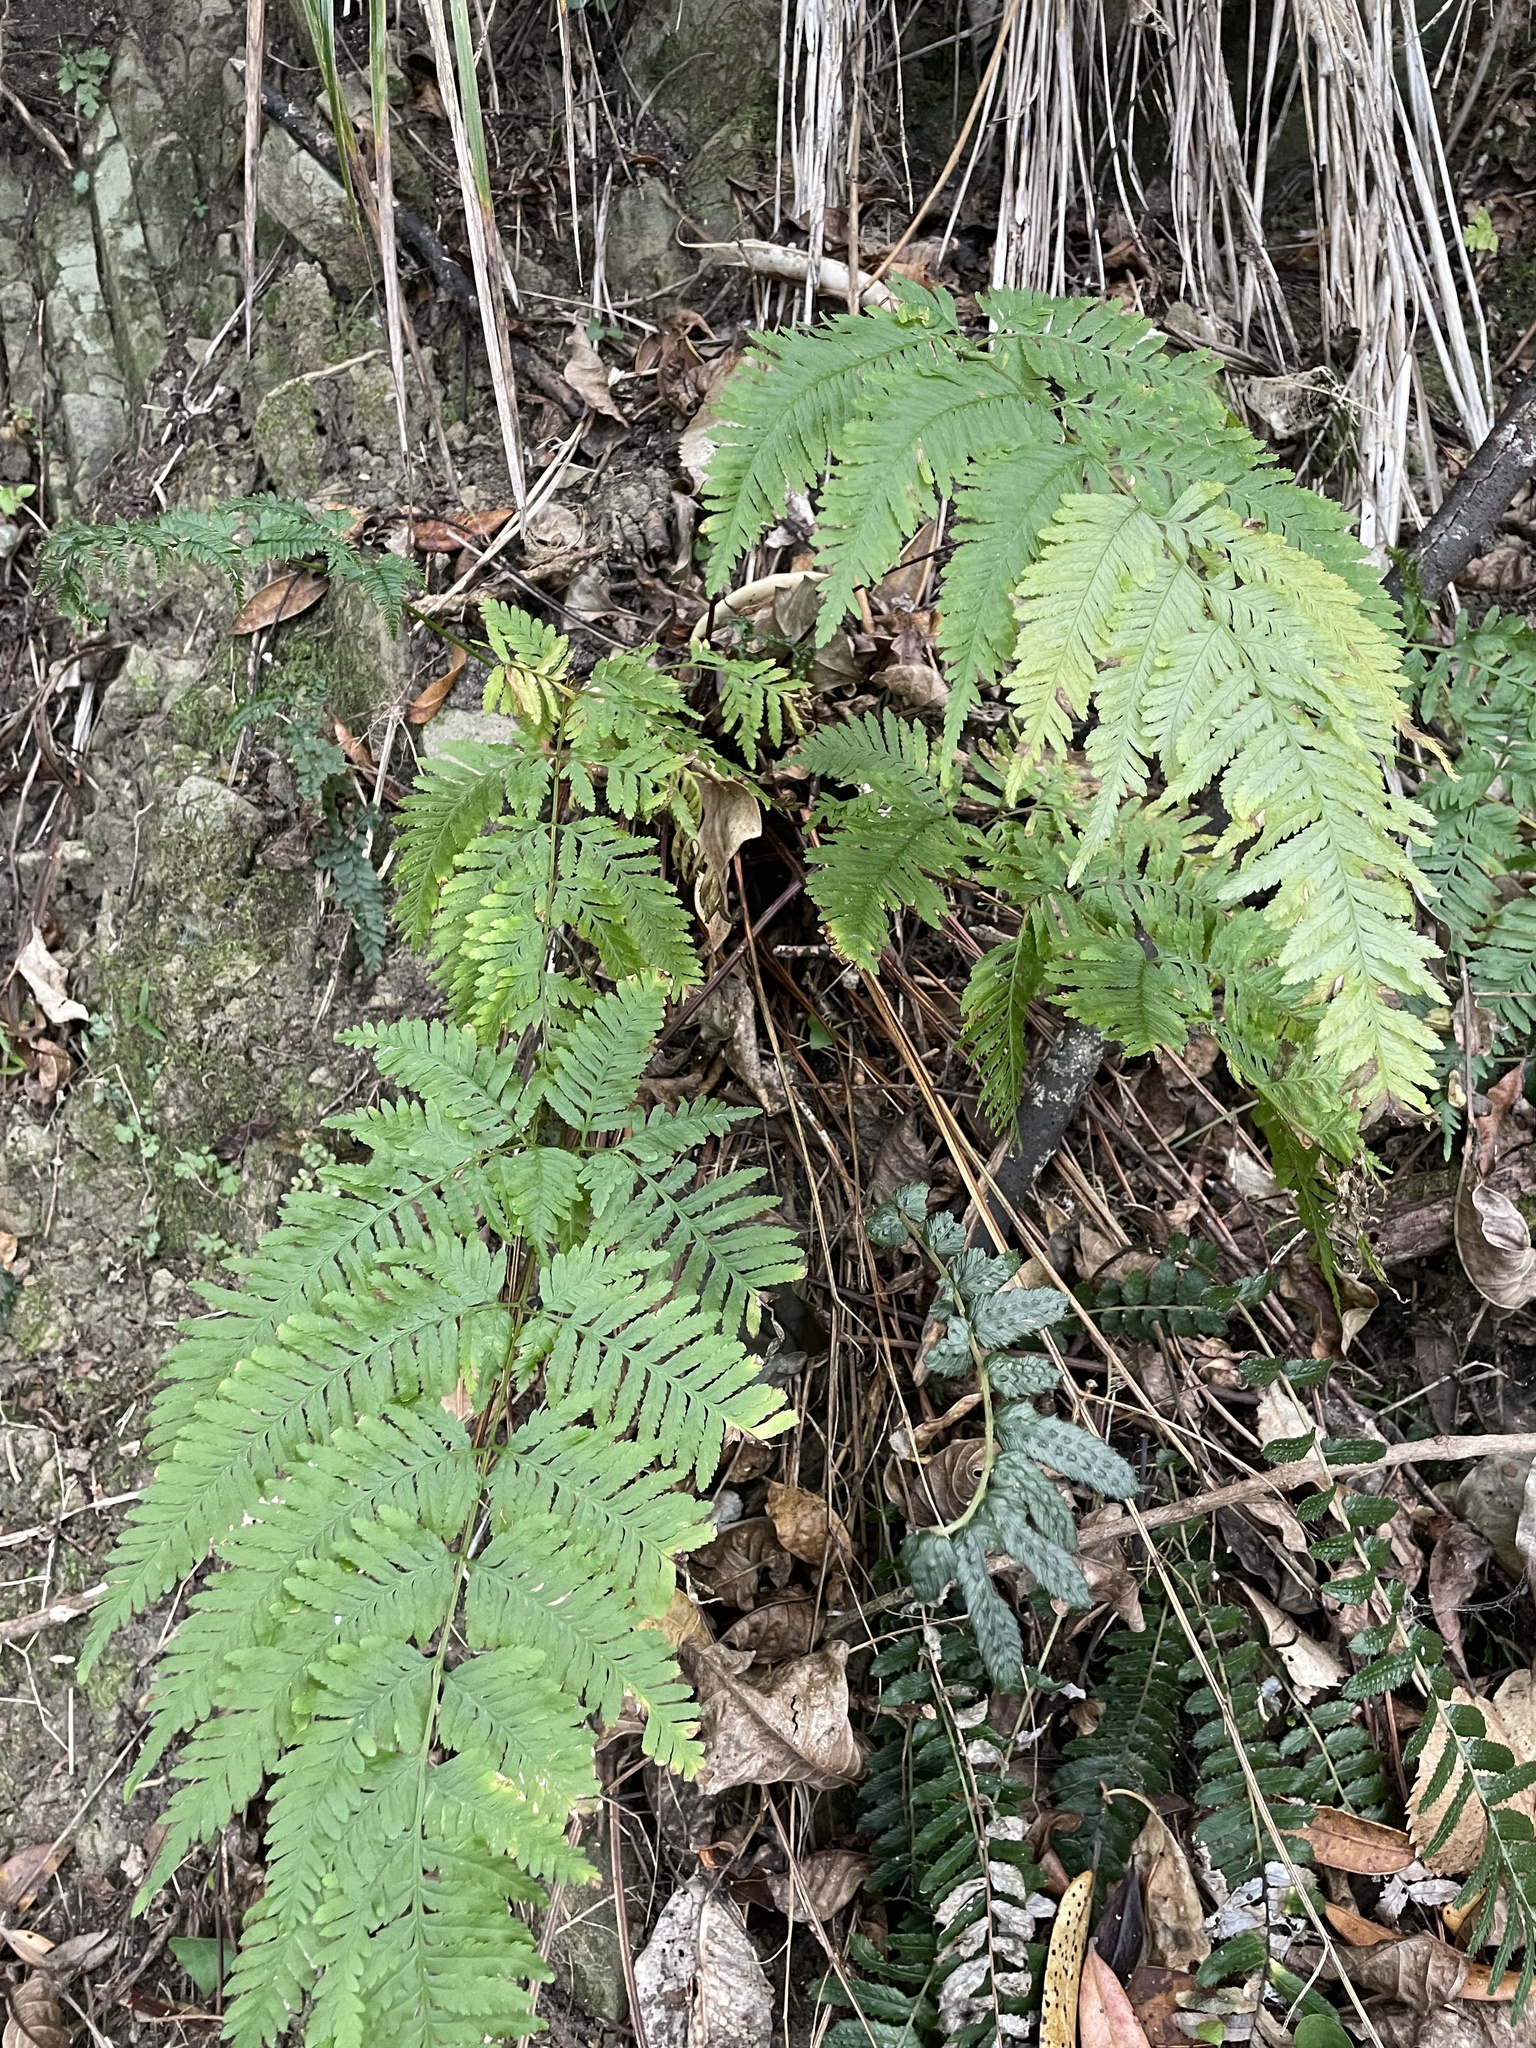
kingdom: Plantae
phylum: Tracheophyta
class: Polypodiopsida
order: Polypodiales
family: Pteridaceae
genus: Pteris
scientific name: Pteris tremula
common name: Australian brake
